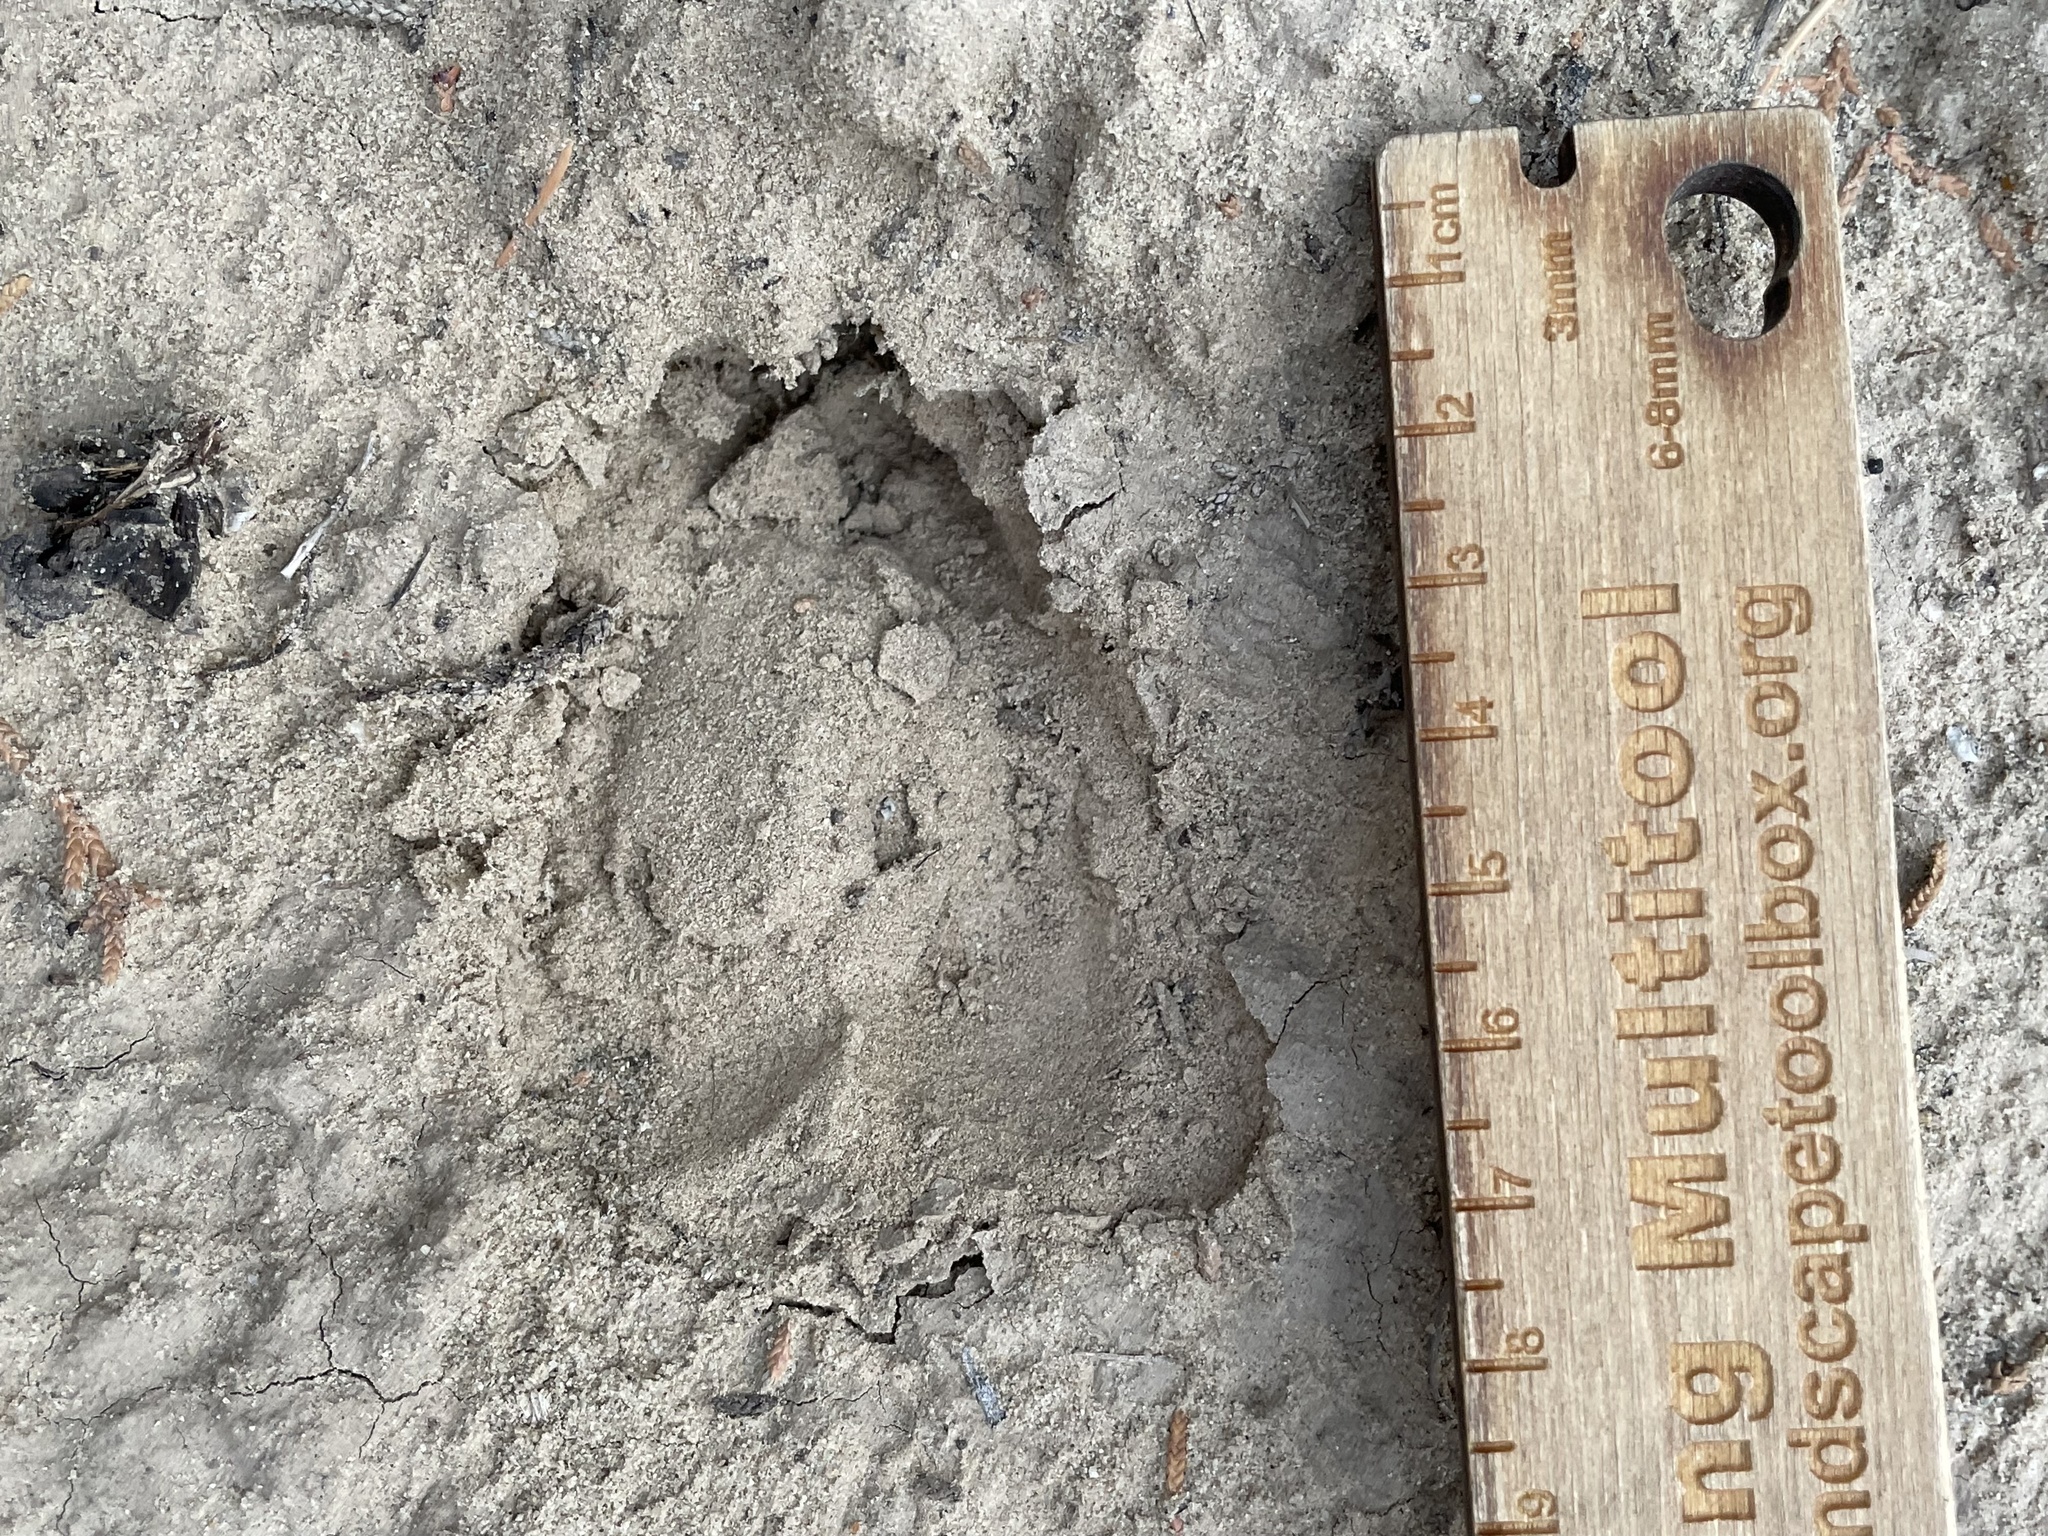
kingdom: Animalia
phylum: Chordata
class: Mammalia
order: Artiodactyla
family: Cervidae
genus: Odocoileus
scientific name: Odocoileus hemionus
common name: Mule deer
